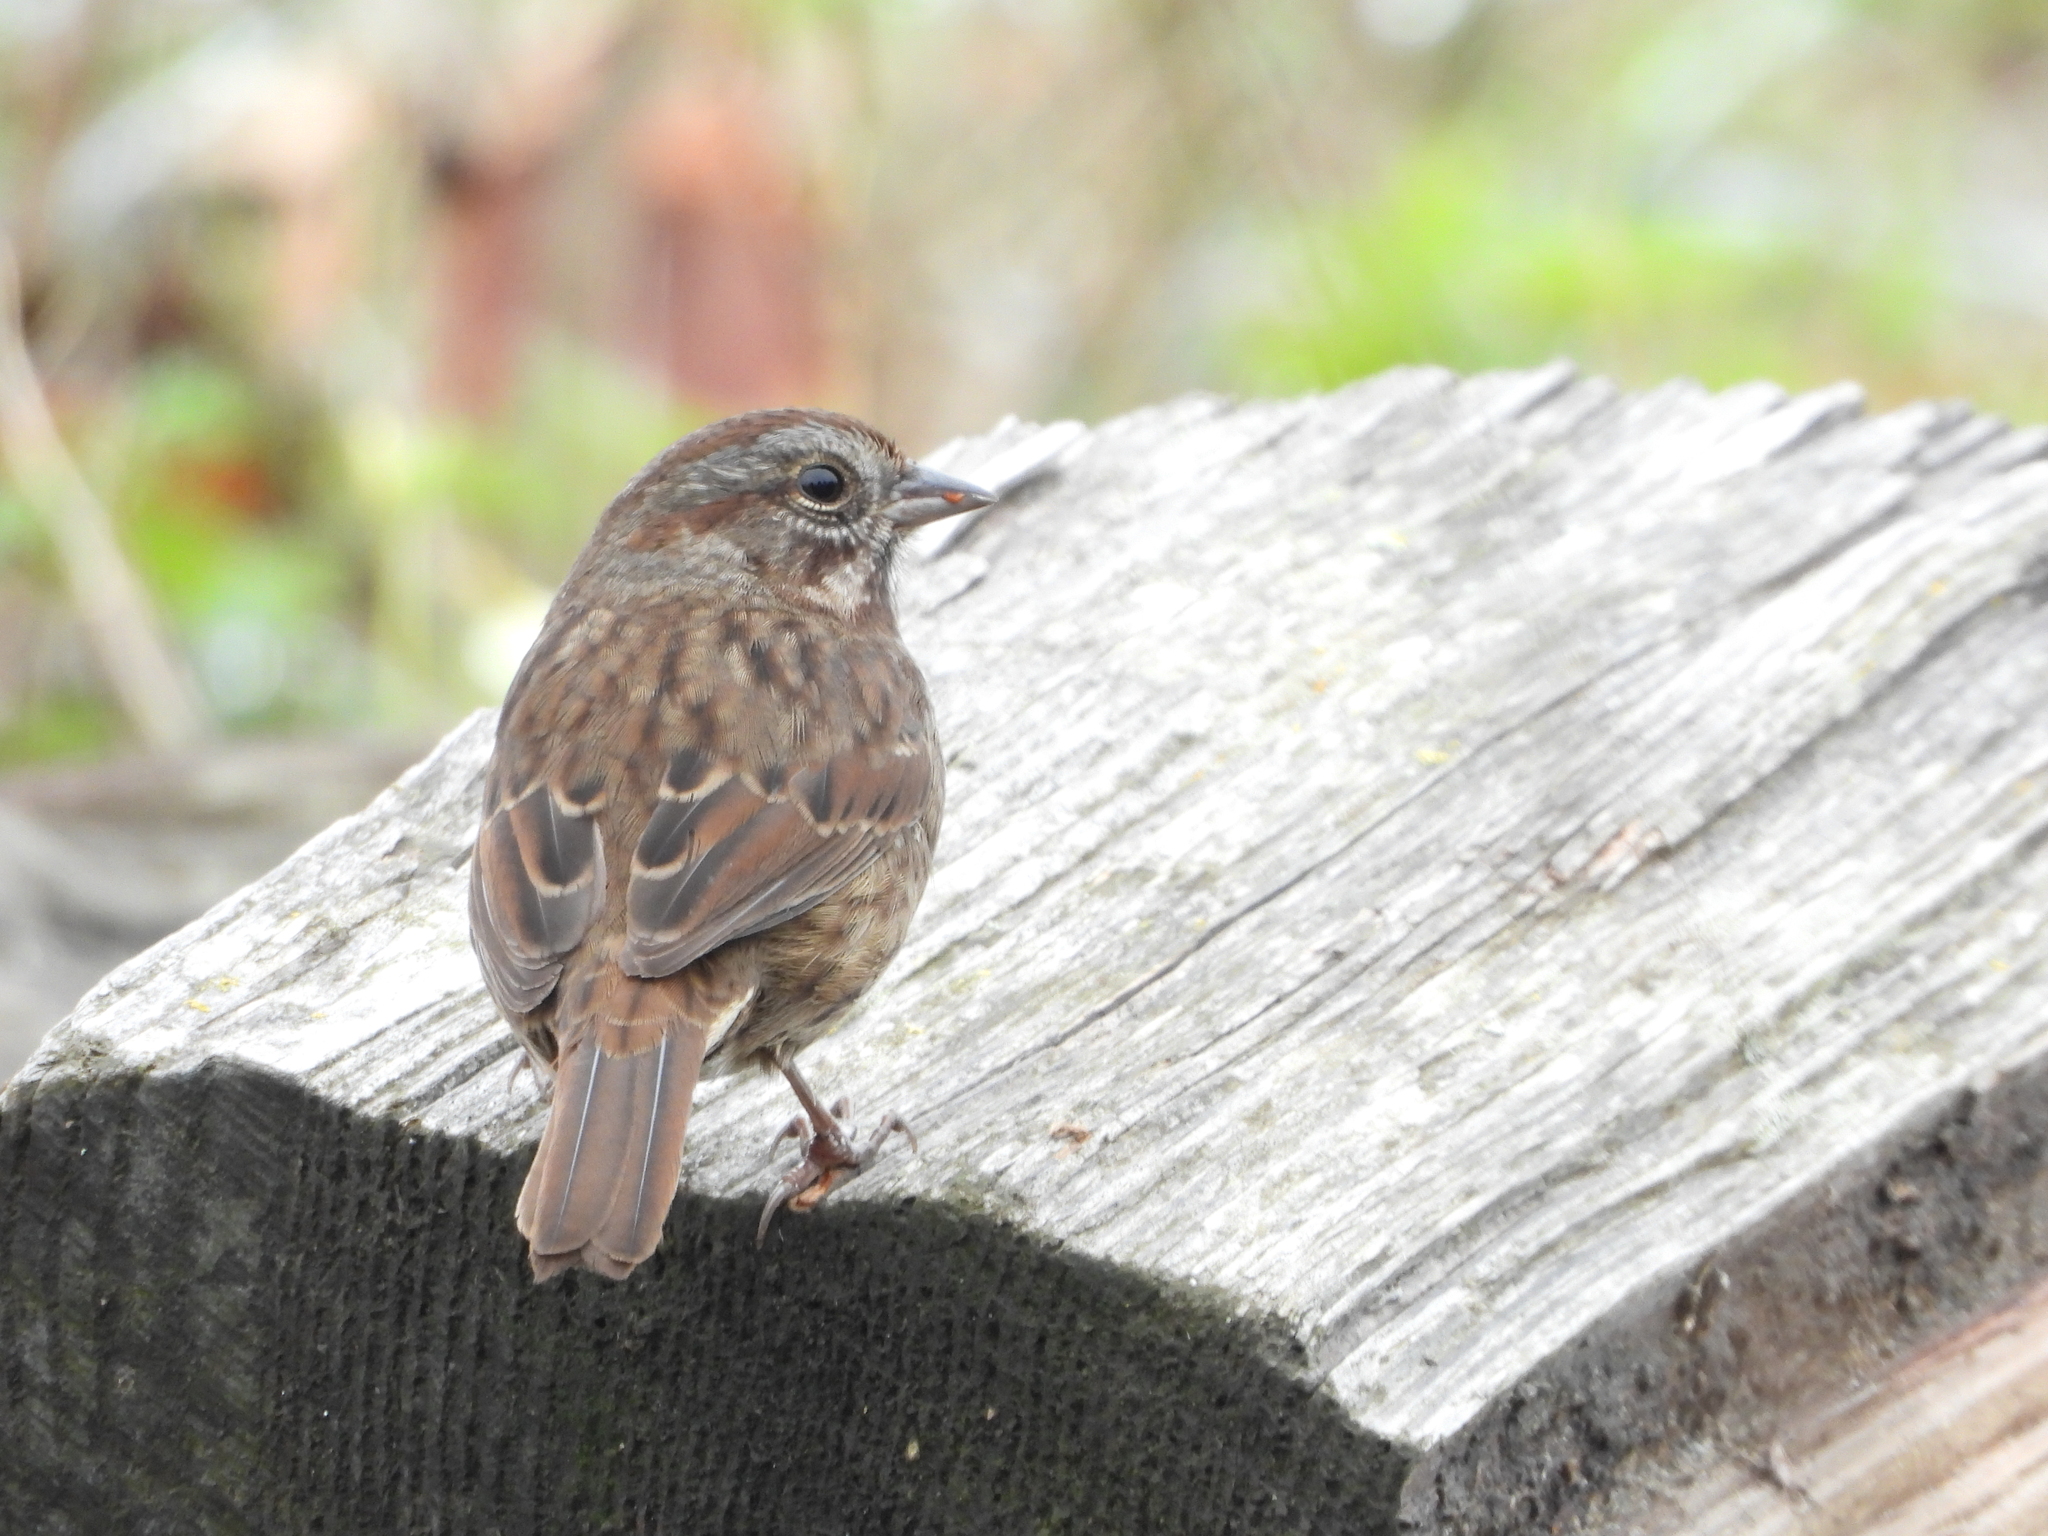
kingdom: Animalia
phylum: Chordata
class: Aves
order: Passeriformes
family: Passerellidae
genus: Melospiza
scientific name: Melospiza melodia
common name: Song sparrow
